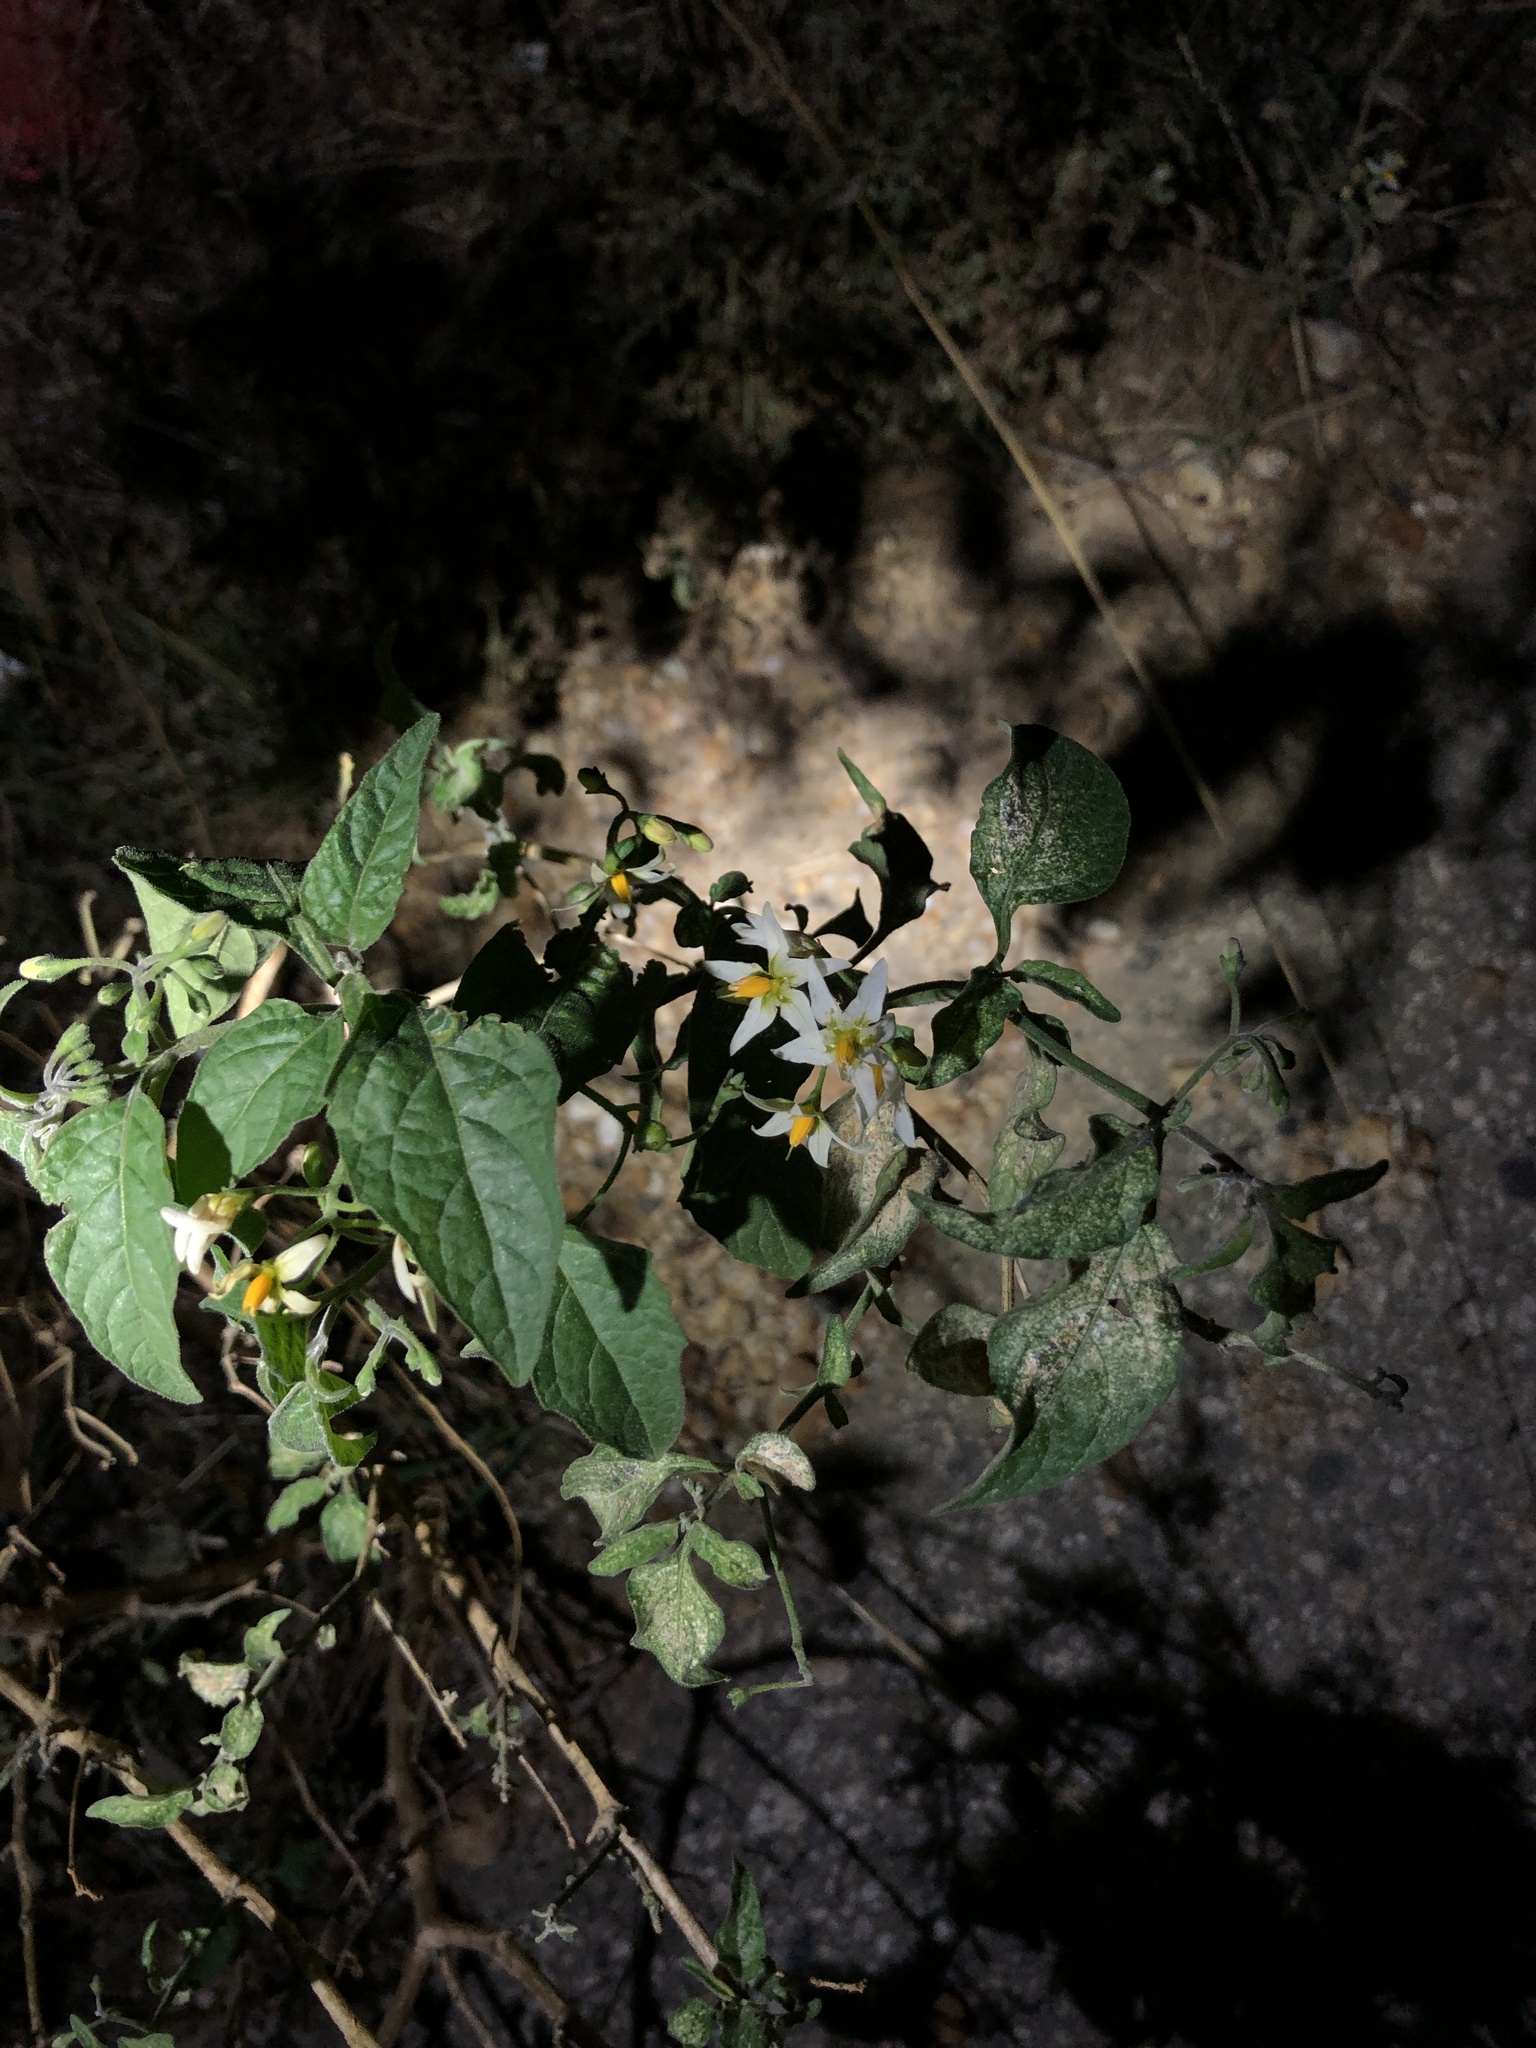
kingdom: Plantae
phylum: Tracheophyta
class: Magnoliopsida
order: Solanales
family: Solanaceae
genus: Solanum
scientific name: Solanum douglasii
